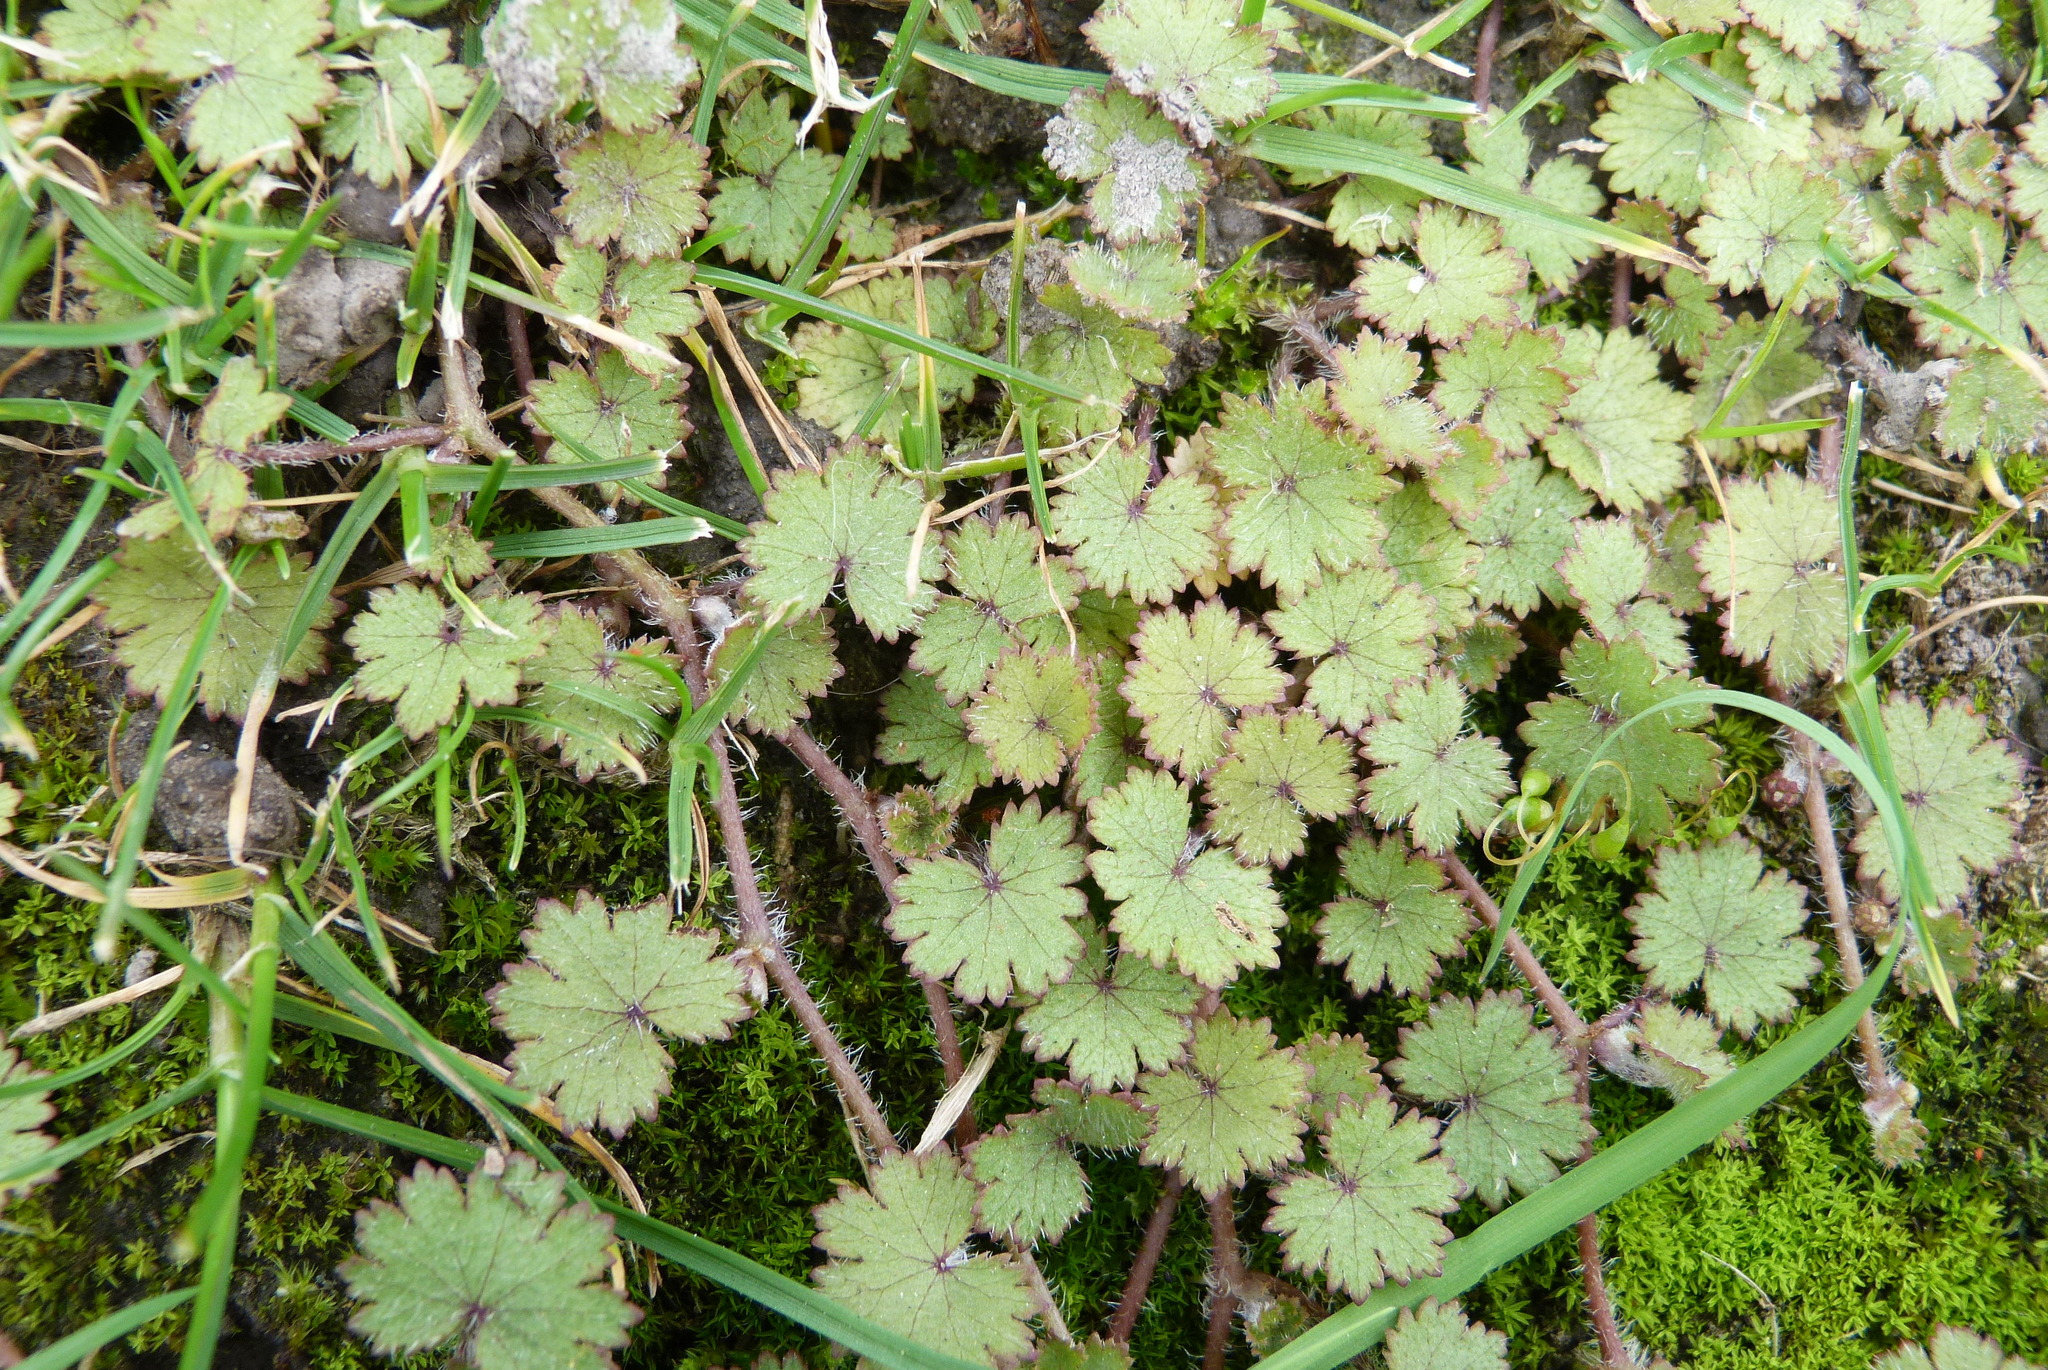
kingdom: Plantae
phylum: Tracheophyta
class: Magnoliopsida
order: Apiales
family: Araliaceae
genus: Hydrocotyle
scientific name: Hydrocotyle moschata
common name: Hairy pennywort
